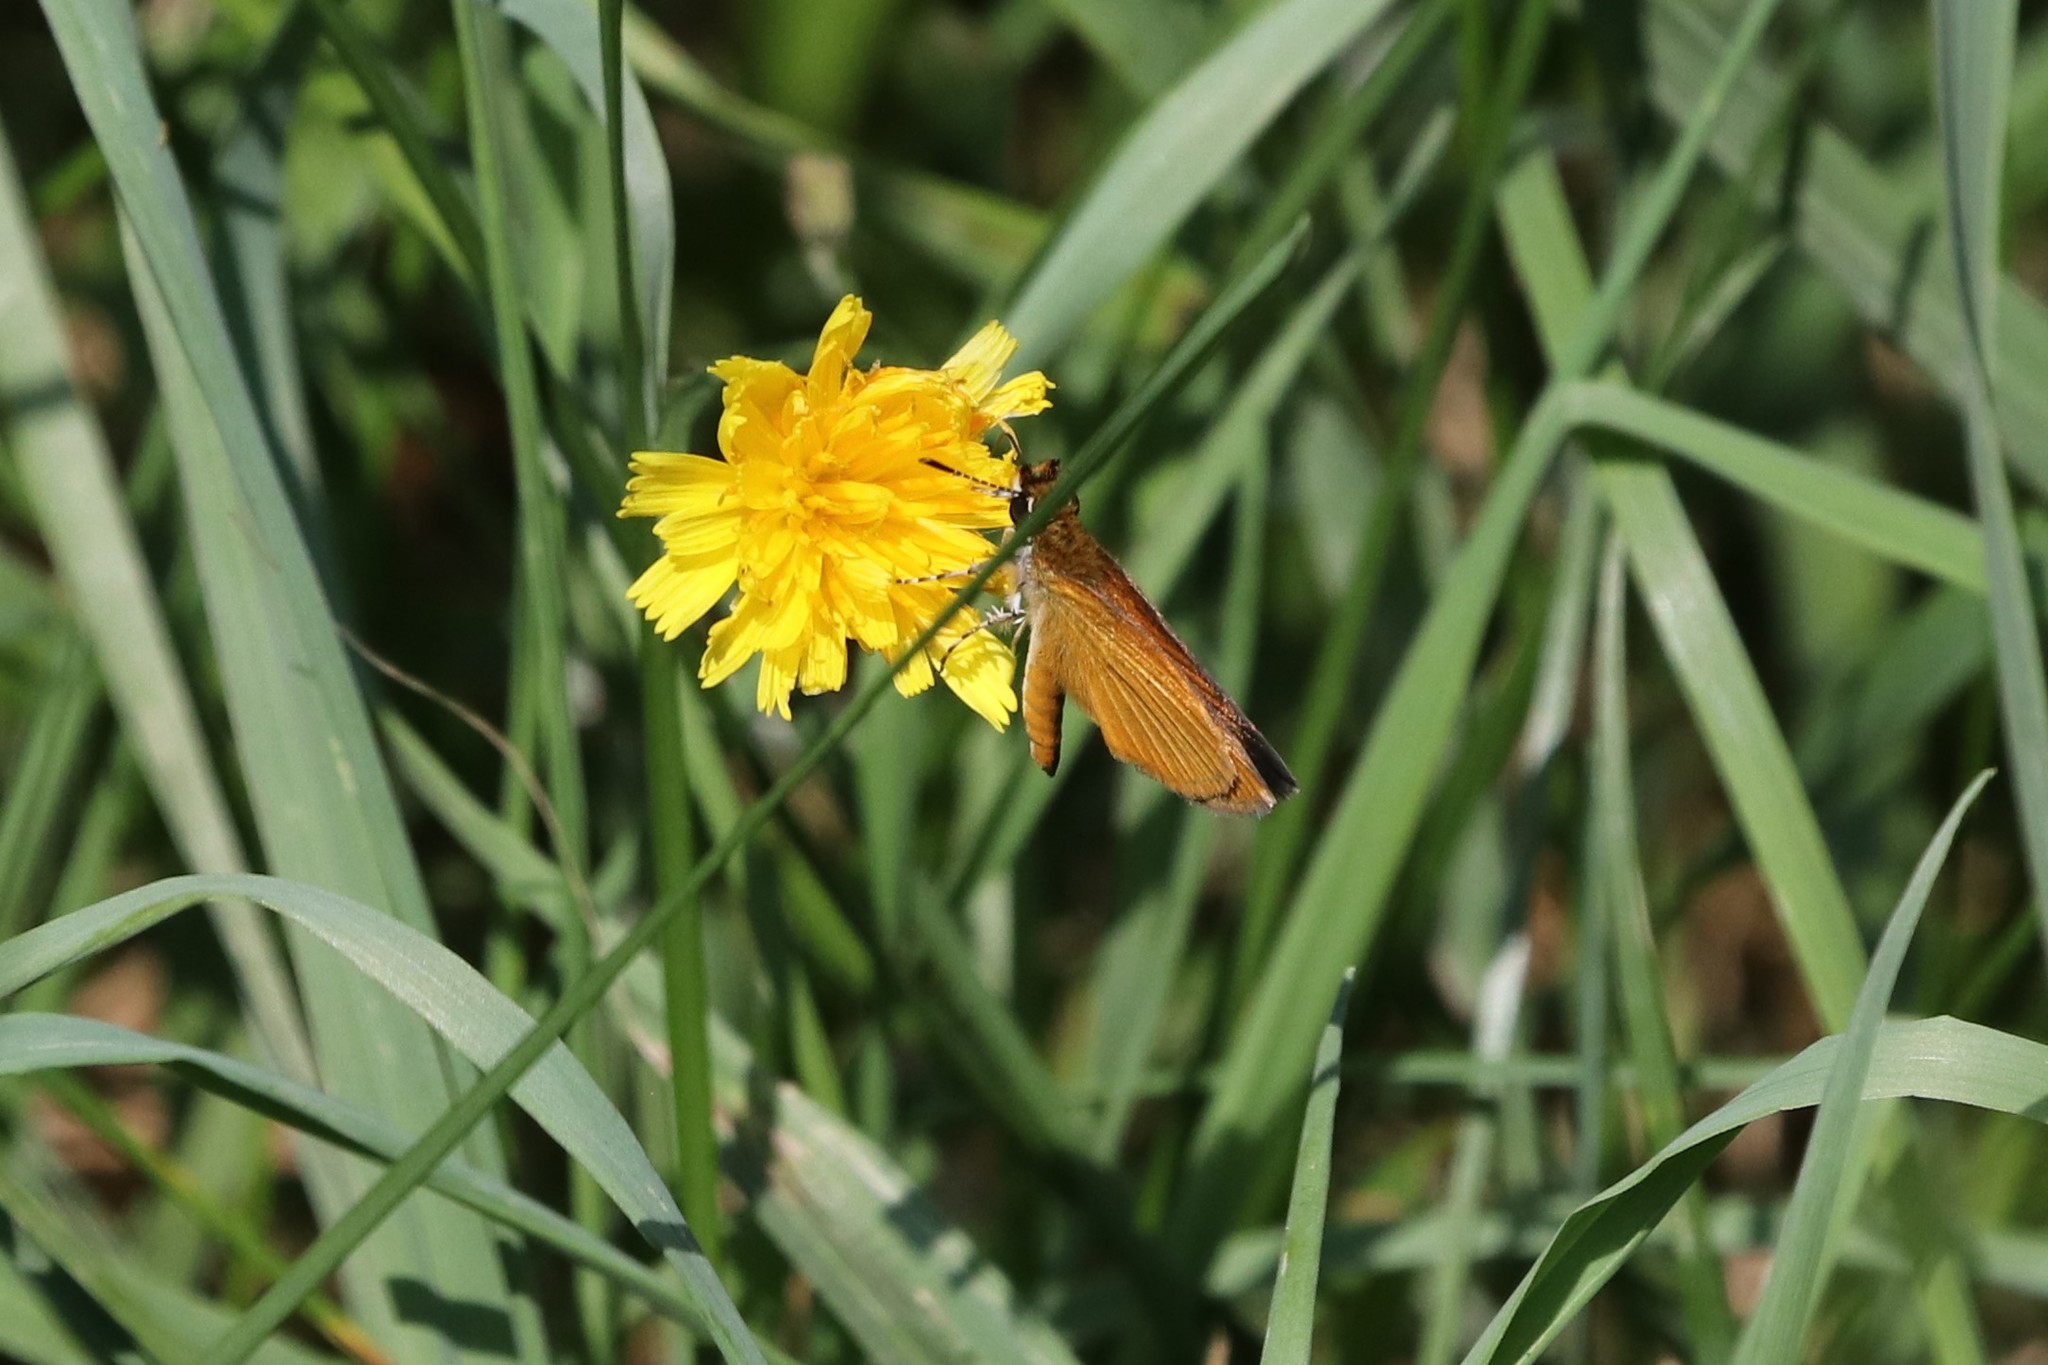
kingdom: Animalia
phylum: Arthropoda
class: Insecta
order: Lepidoptera
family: Hesperiidae
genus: Ancyloxypha
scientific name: Ancyloxypha numitor
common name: Least skipper
